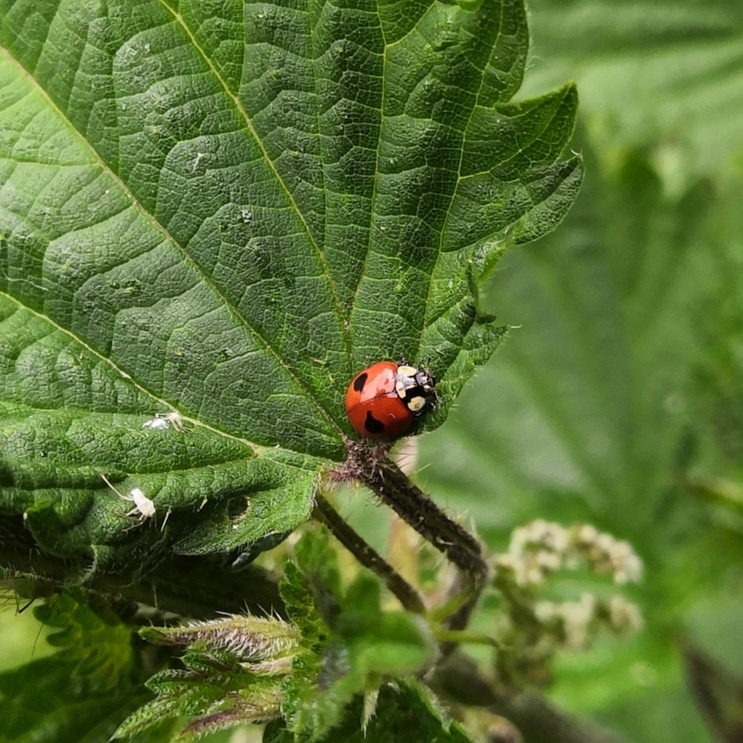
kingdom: Animalia
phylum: Arthropoda
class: Insecta
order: Coleoptera
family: Coccinellidae
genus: Adalia
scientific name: Adalia bipunctata
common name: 2-spot ladybird
